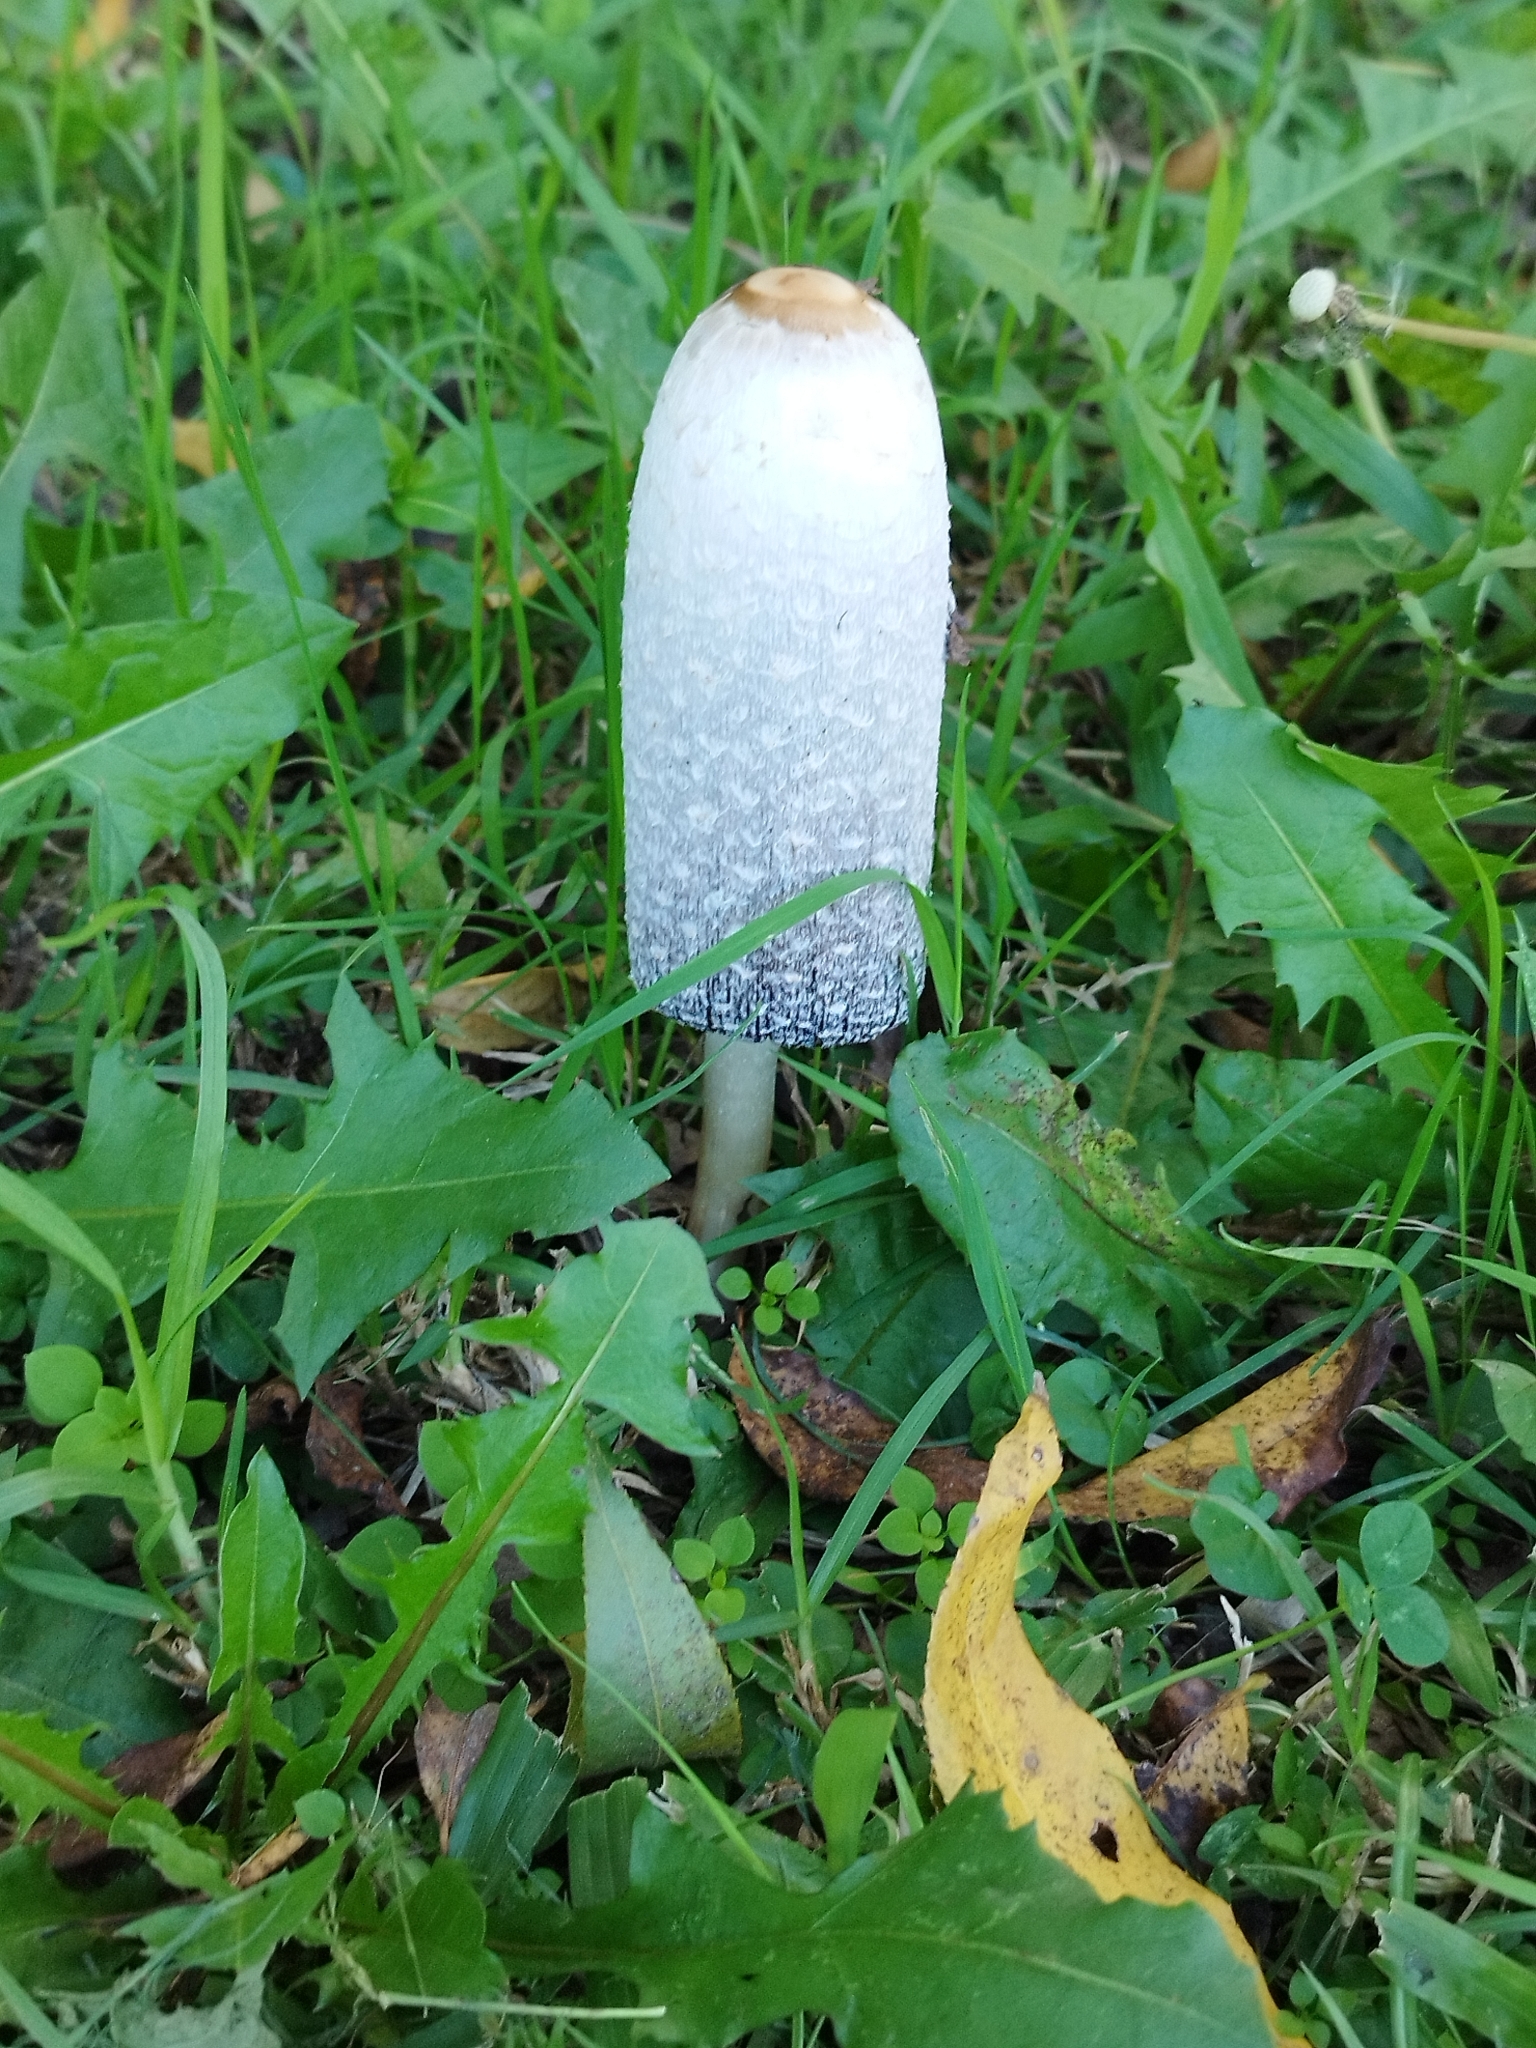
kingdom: Fungi
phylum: Basidiomycota
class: Agaricomycetes
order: Agaricales
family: Agaricaceae
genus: Coprinus
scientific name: Coprinus comatus
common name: Lawyer's wig
